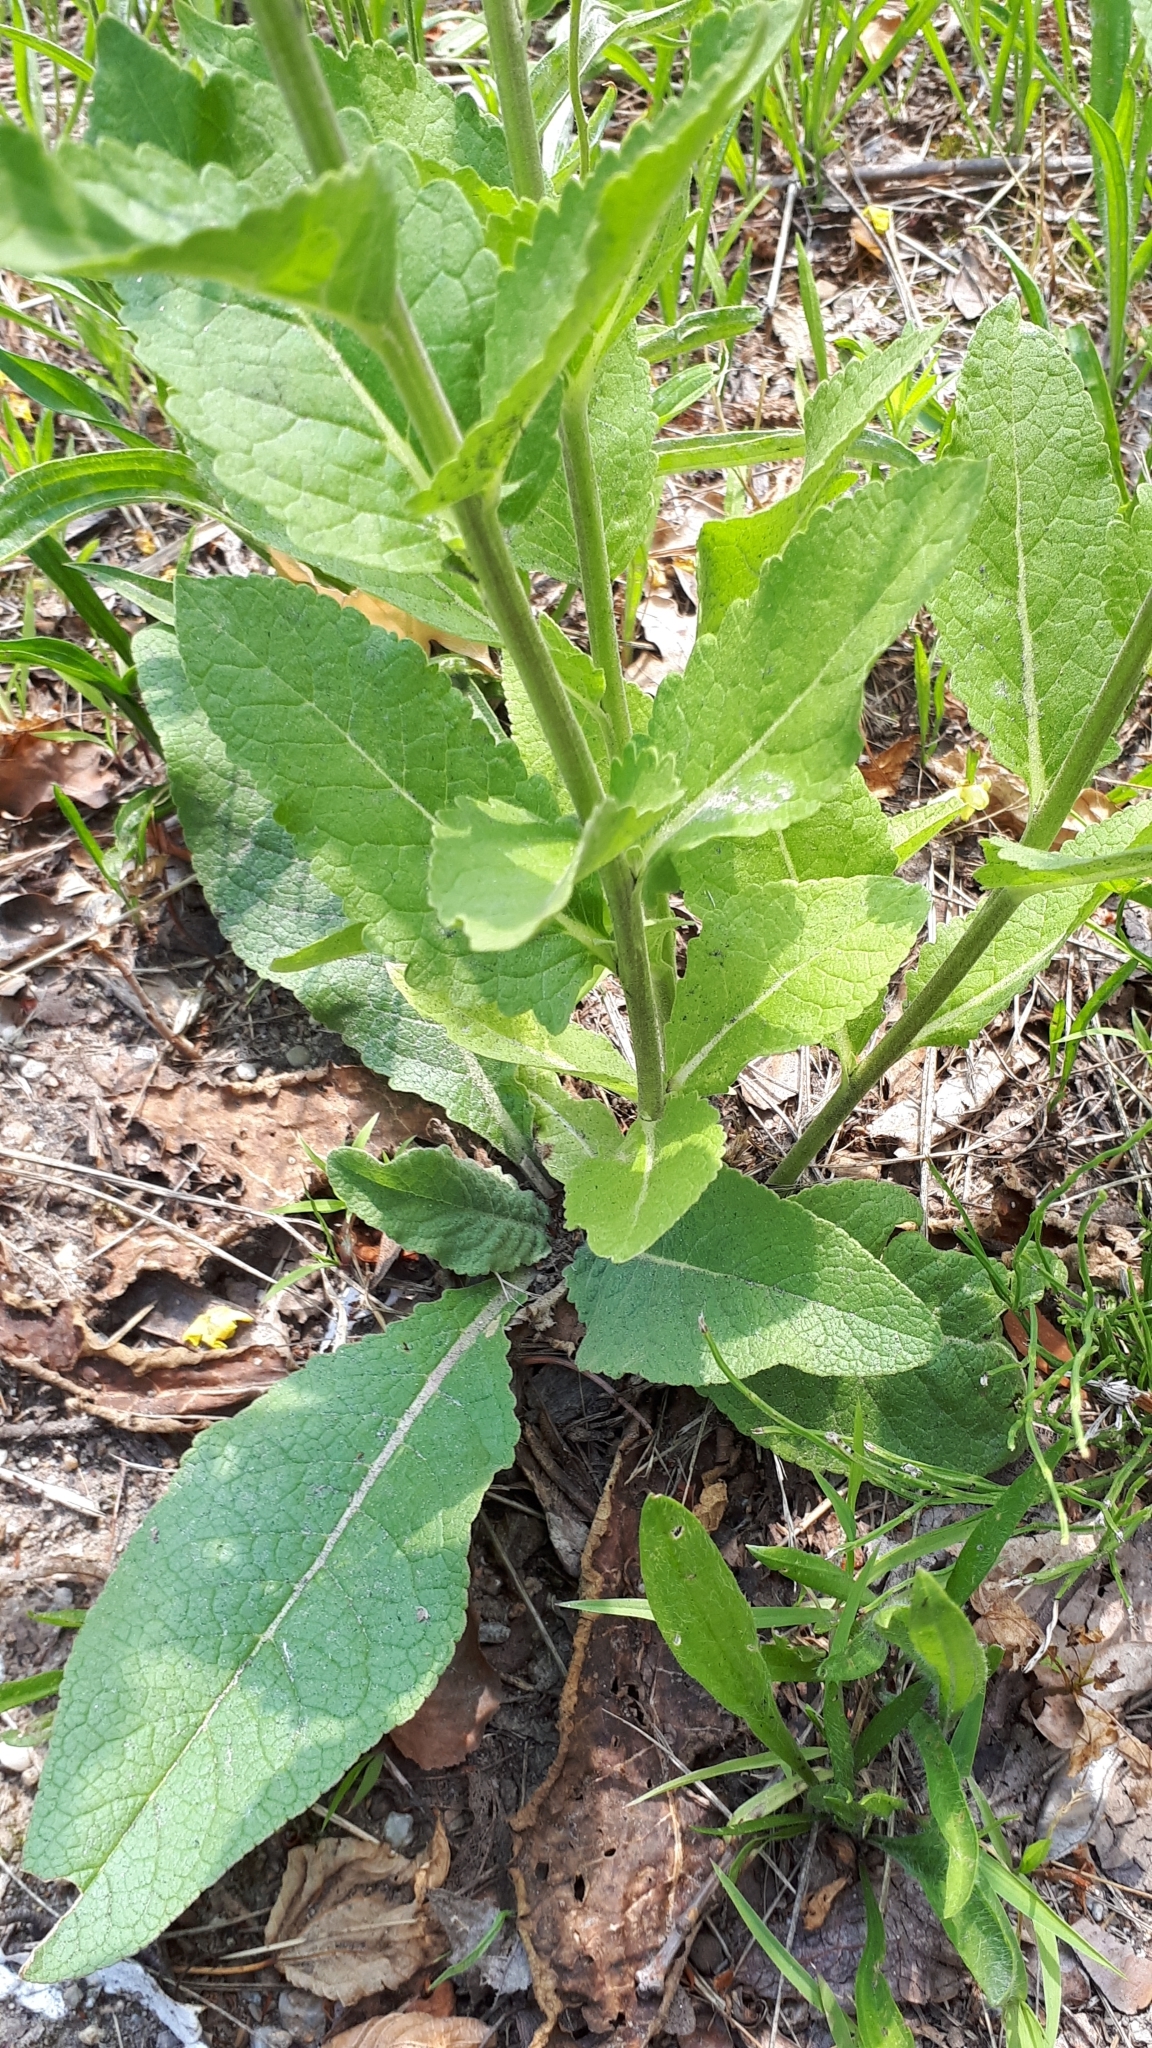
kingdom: Plantae
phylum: Tracheophyta
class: Magnoliopsida
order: Lamiales
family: Scrophulariaceae
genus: Verbascum
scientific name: Verbascum lychnitis
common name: White mullein
